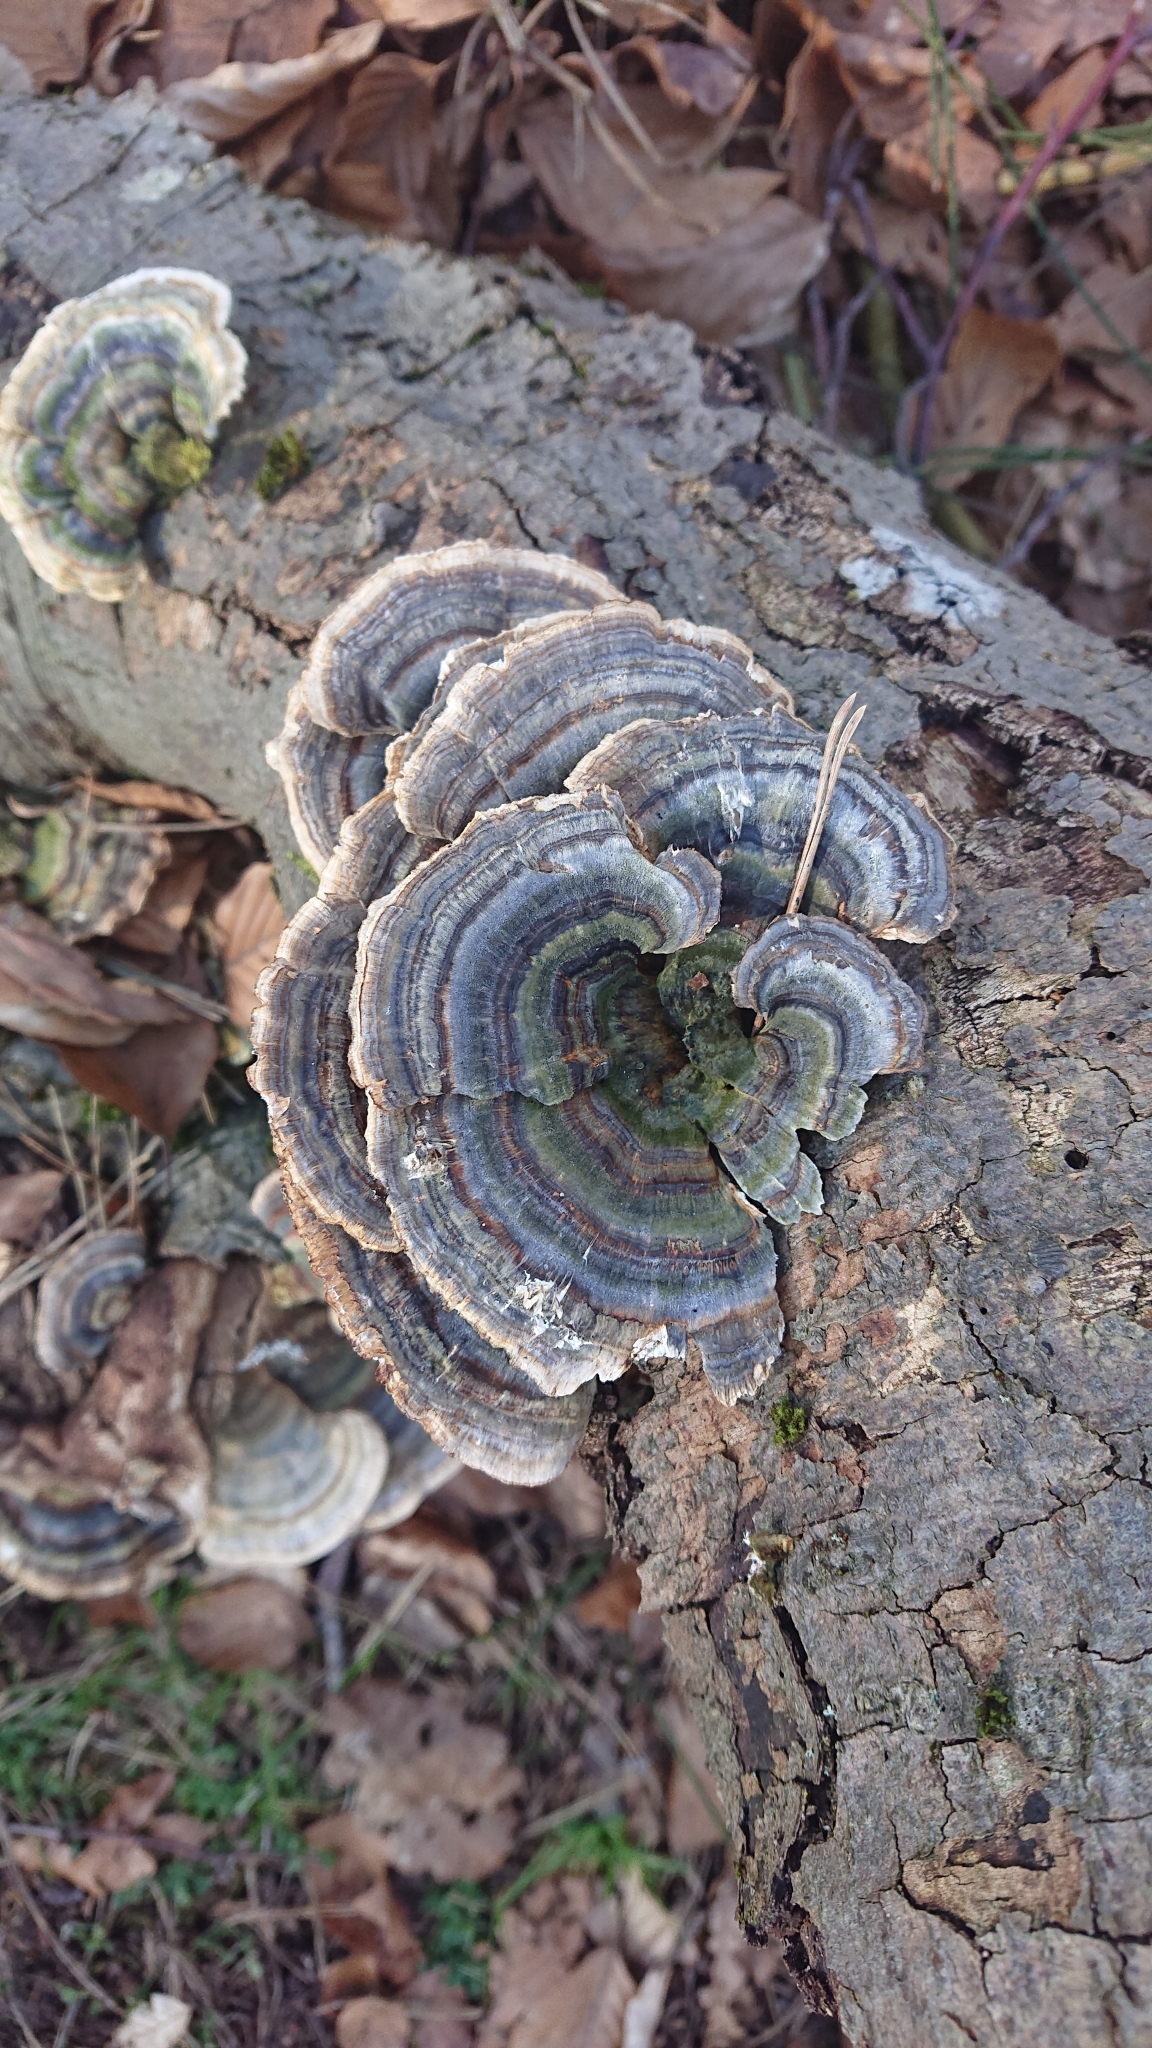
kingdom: Fungi
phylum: Basidiomycota
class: Agaricomycetes
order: Polyporales
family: Polyporaceae
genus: Trametes
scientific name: Trametes versicolor
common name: Turkeytail
